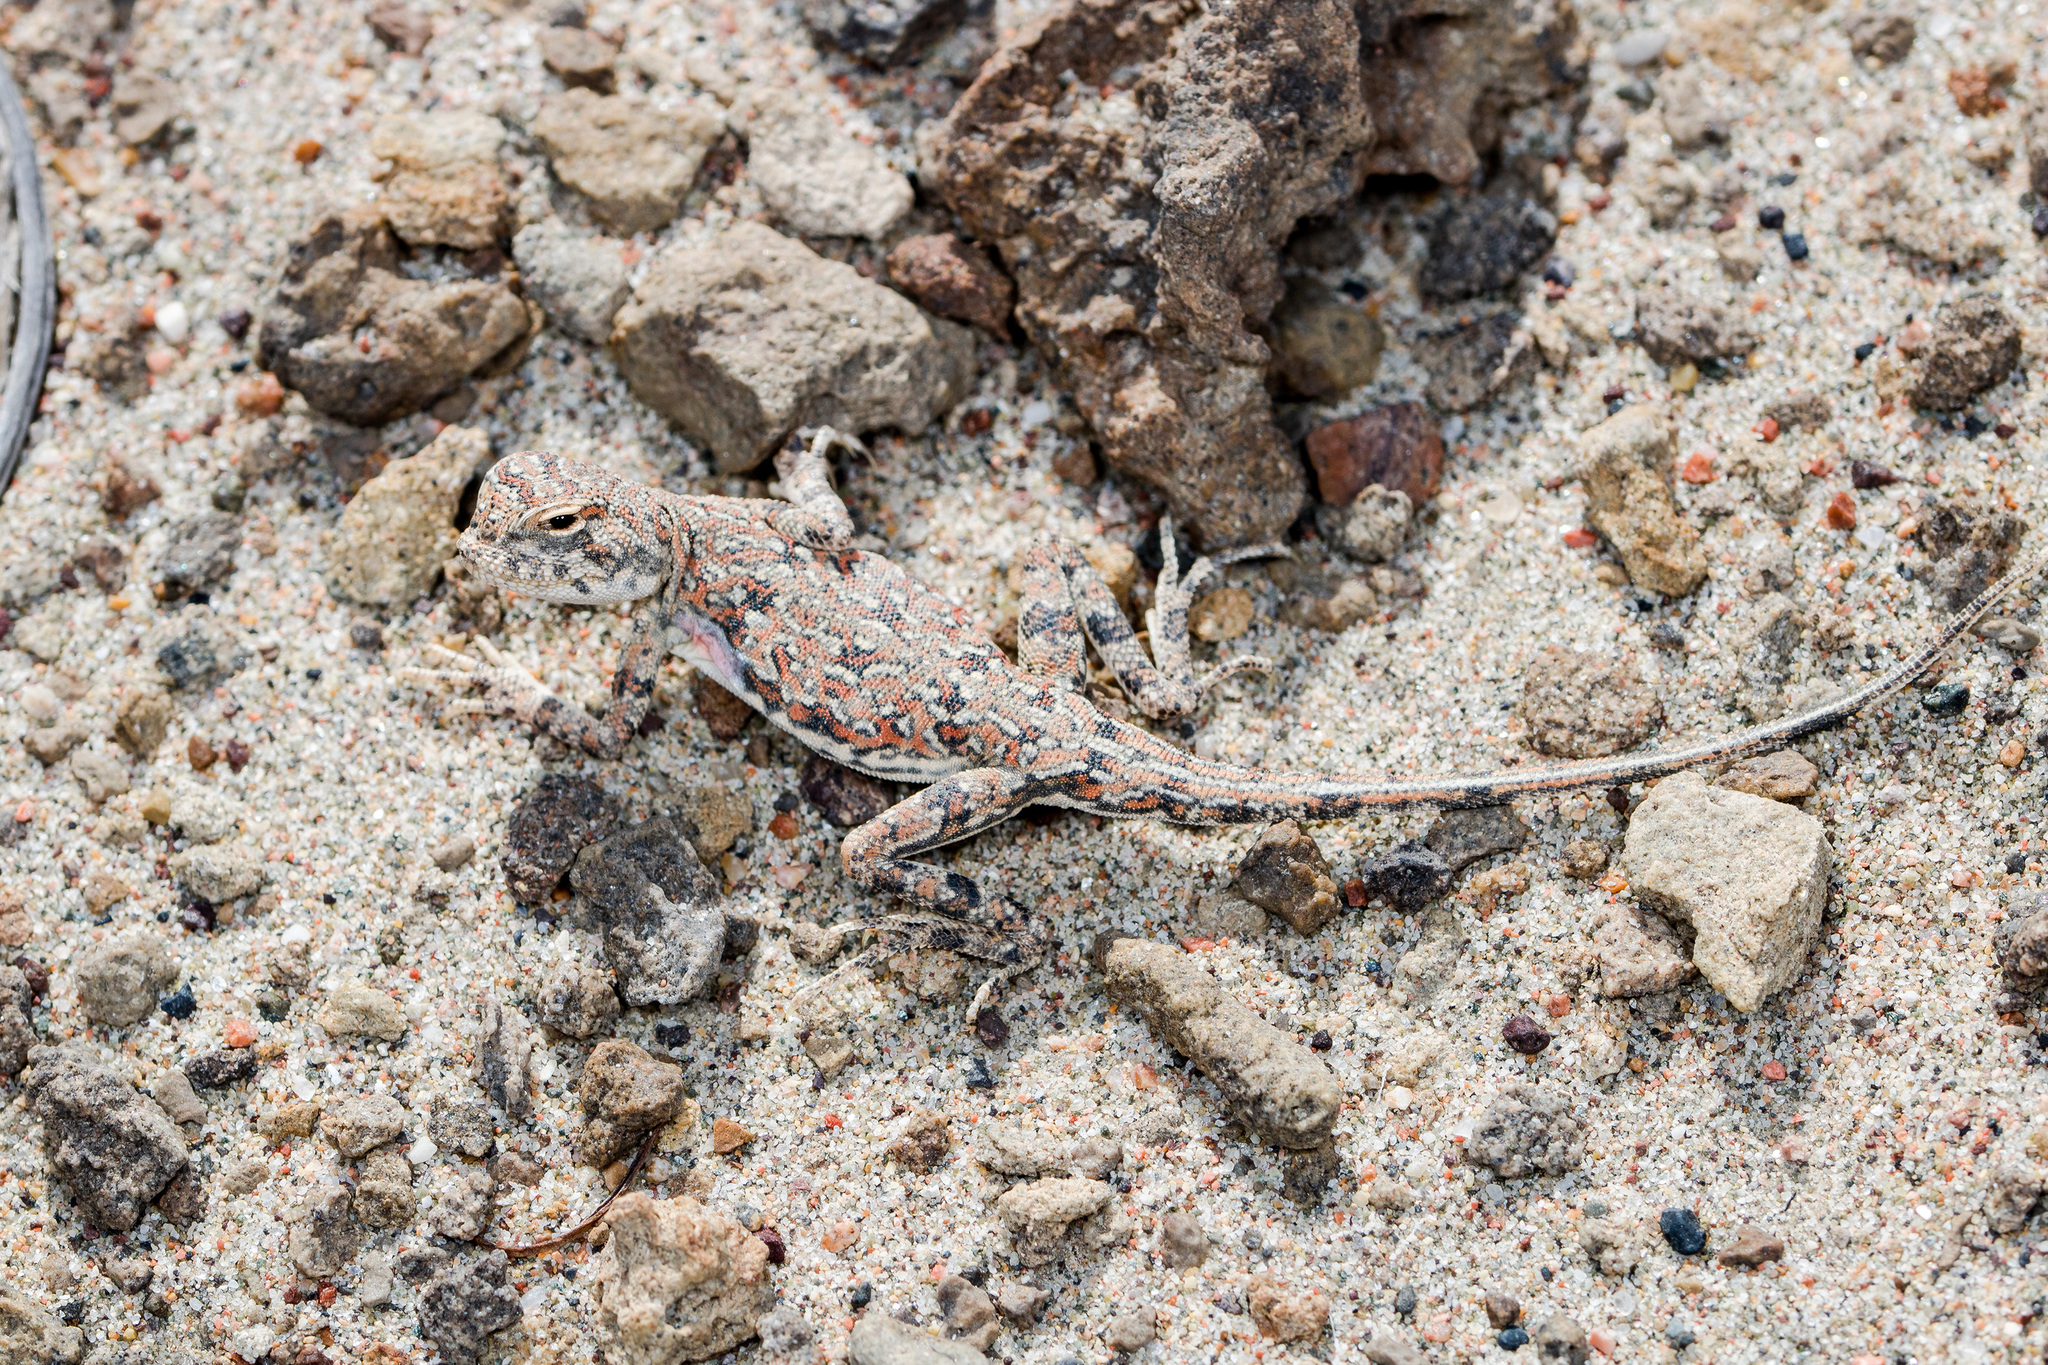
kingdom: Animalia
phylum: Chordata
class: Squamata
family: Agamidae
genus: Phrynocephalus
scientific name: Phrynocephalus guttatus
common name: Spotted toadhead agama
